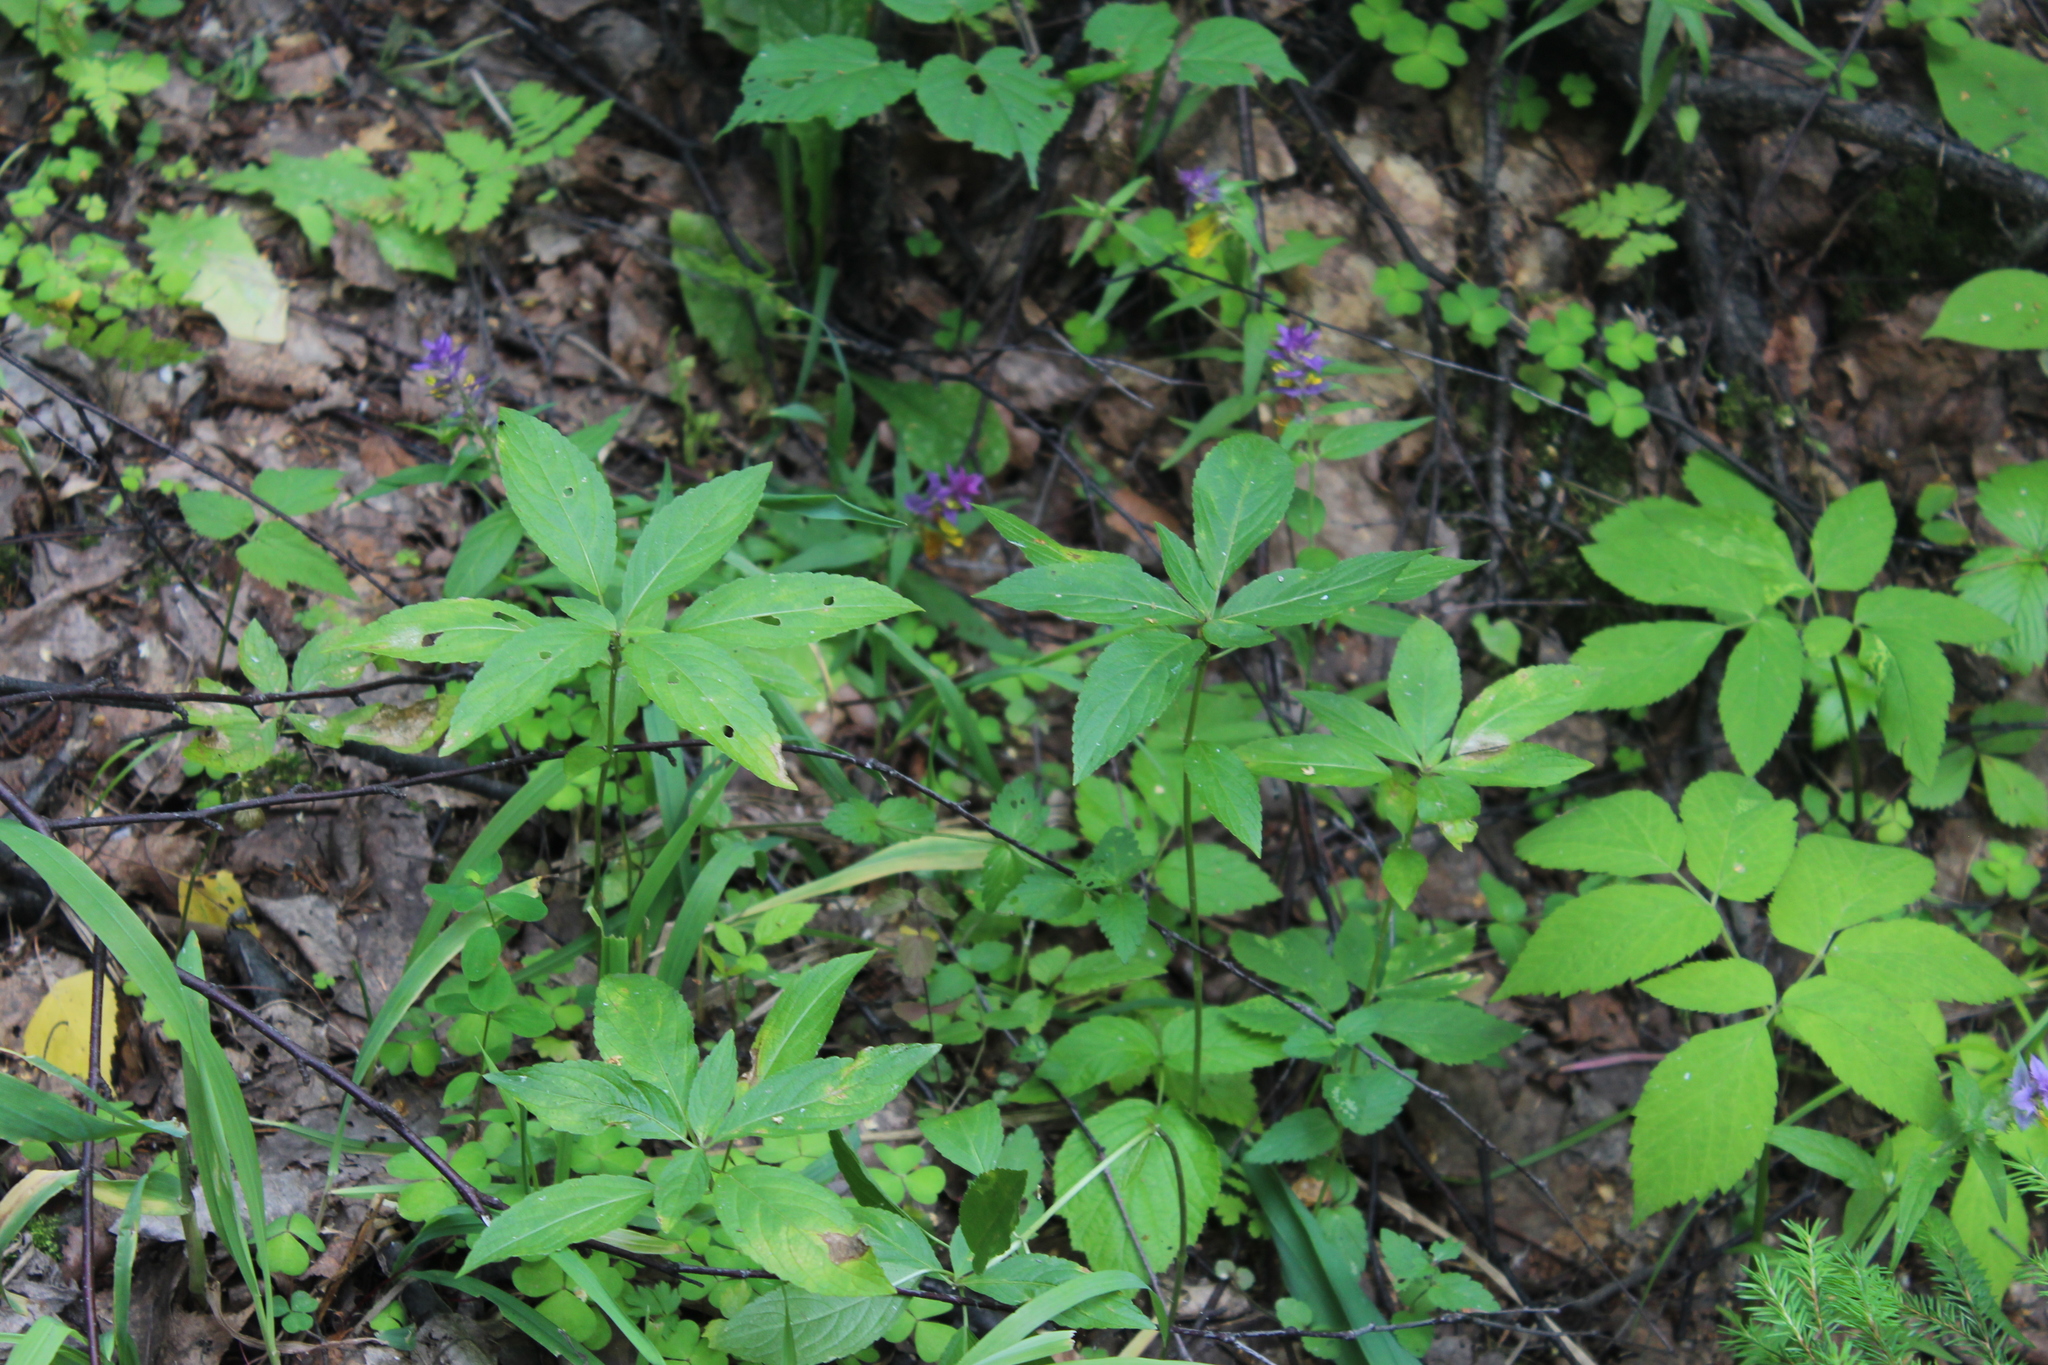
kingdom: Plantae
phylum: Tracheophyta
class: Magnoliopsida
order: Malpighiales
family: Euphorbiaceae
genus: Mercurialis
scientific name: Mercurialis perennis
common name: Dog mercury
